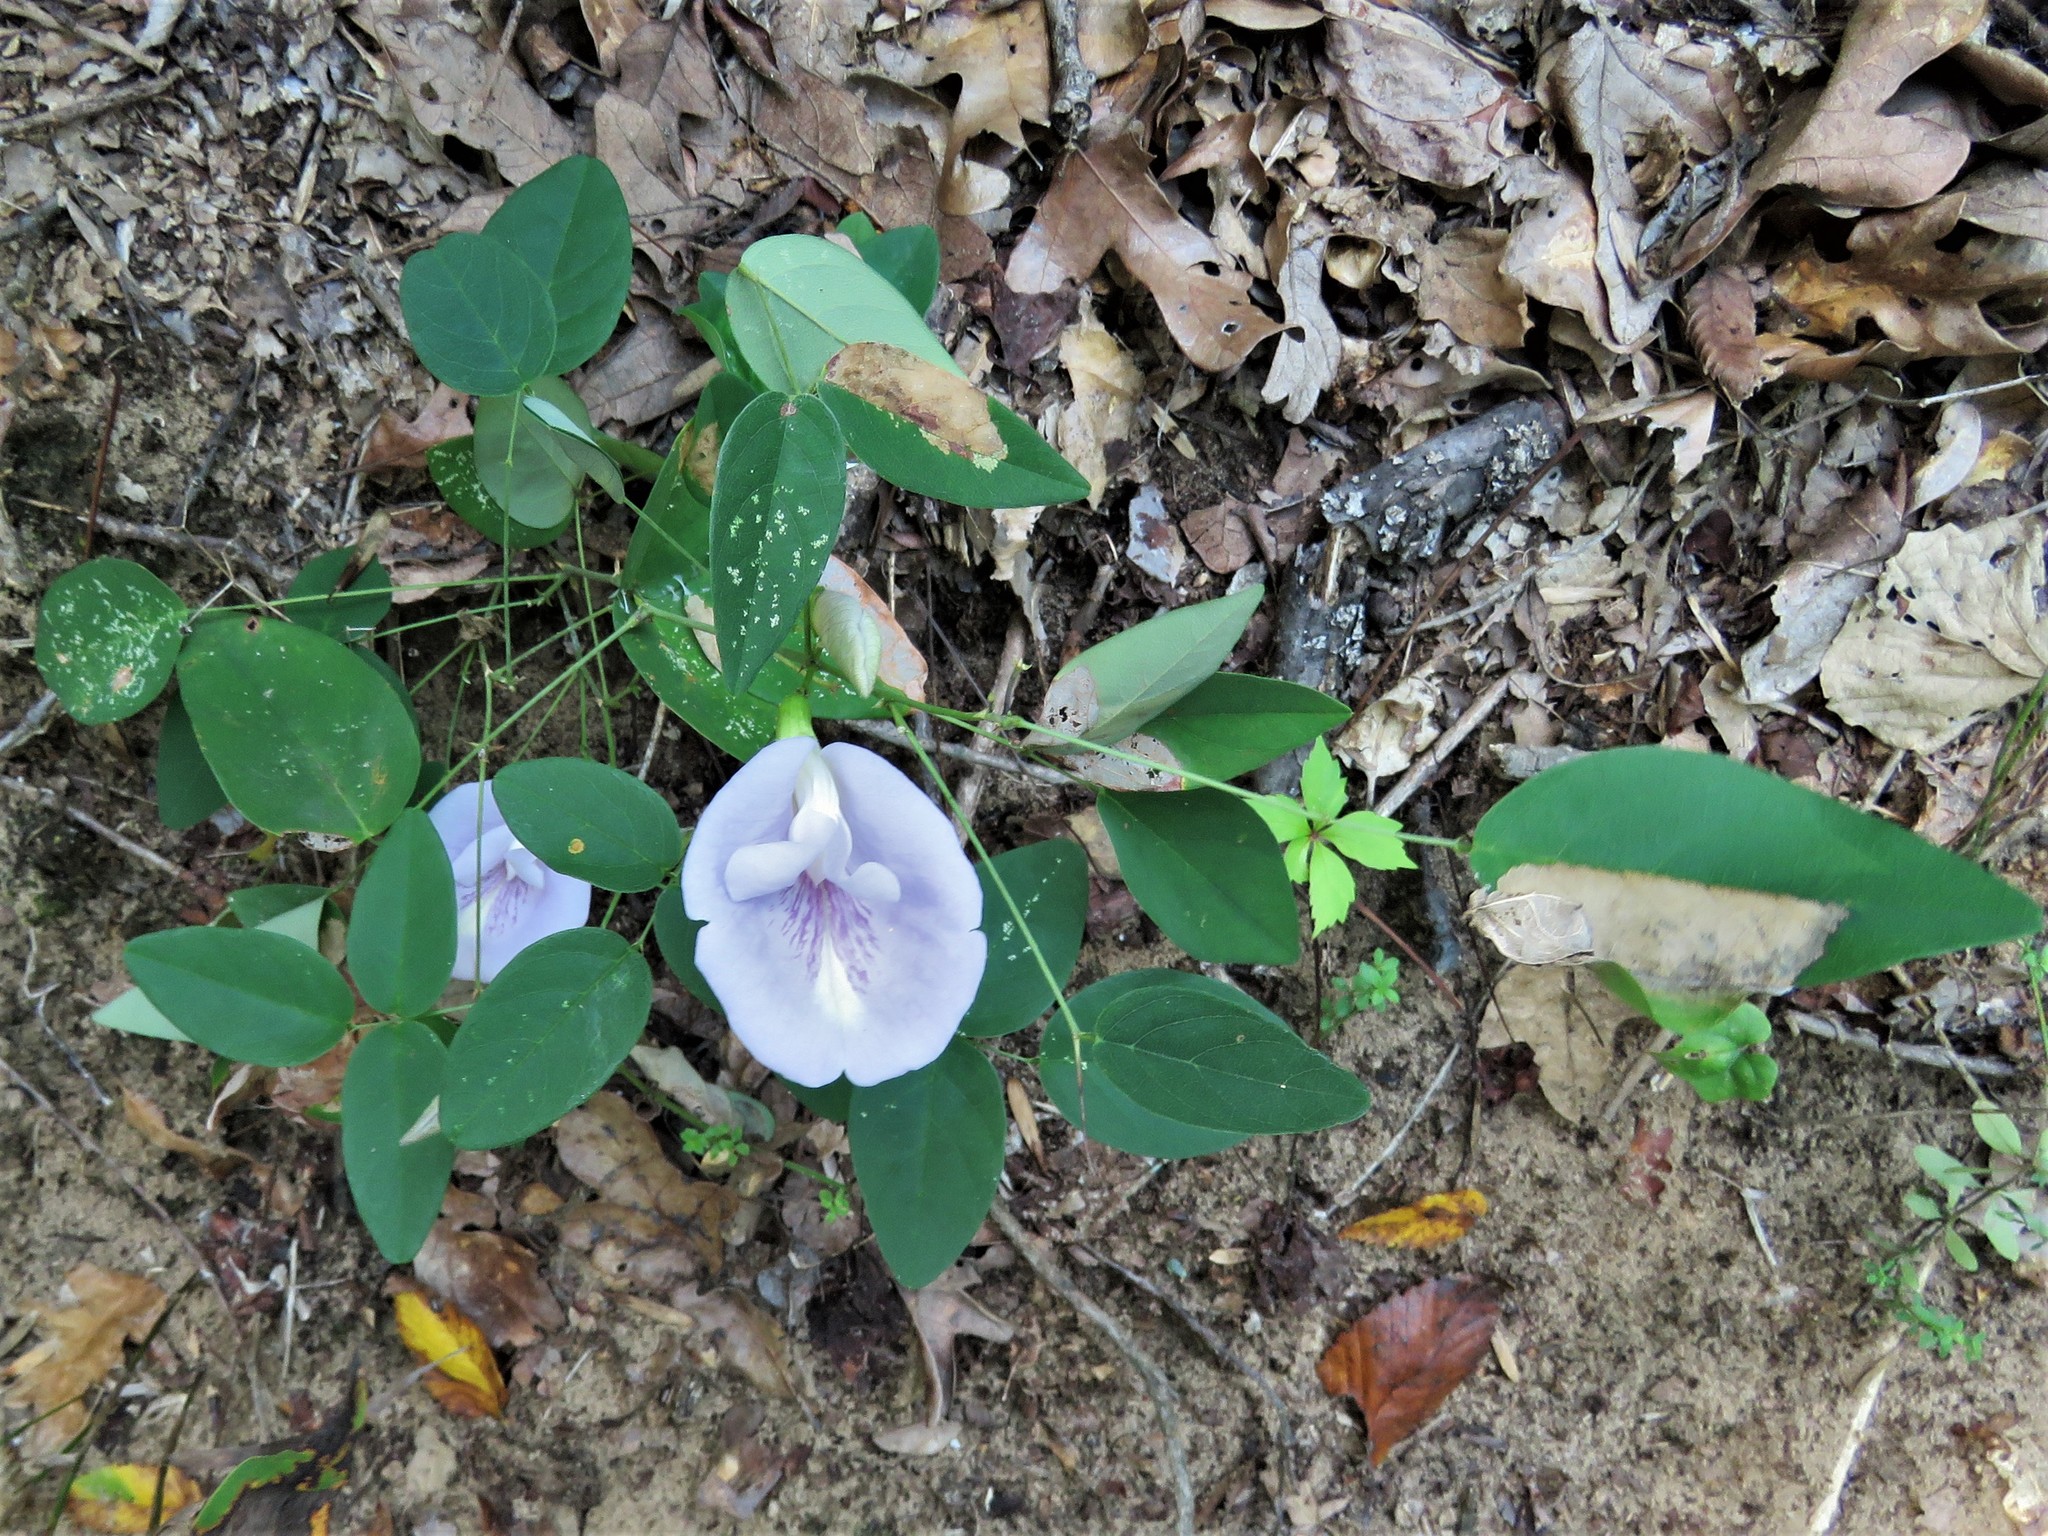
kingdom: Plantae
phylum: Tracheophyta
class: Magnoliopsida
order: Fabales
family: Fabaceae
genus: Clitoria
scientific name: Clitoria mariana
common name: Butterfly-pea
